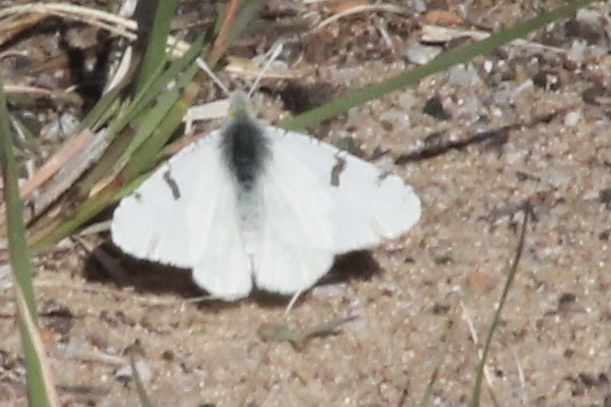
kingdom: Animalia
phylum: Arthropoda
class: Insecta
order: Lepidoptera
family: Pieridae
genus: Euchloe
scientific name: Euchloe olympia
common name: Olympia
